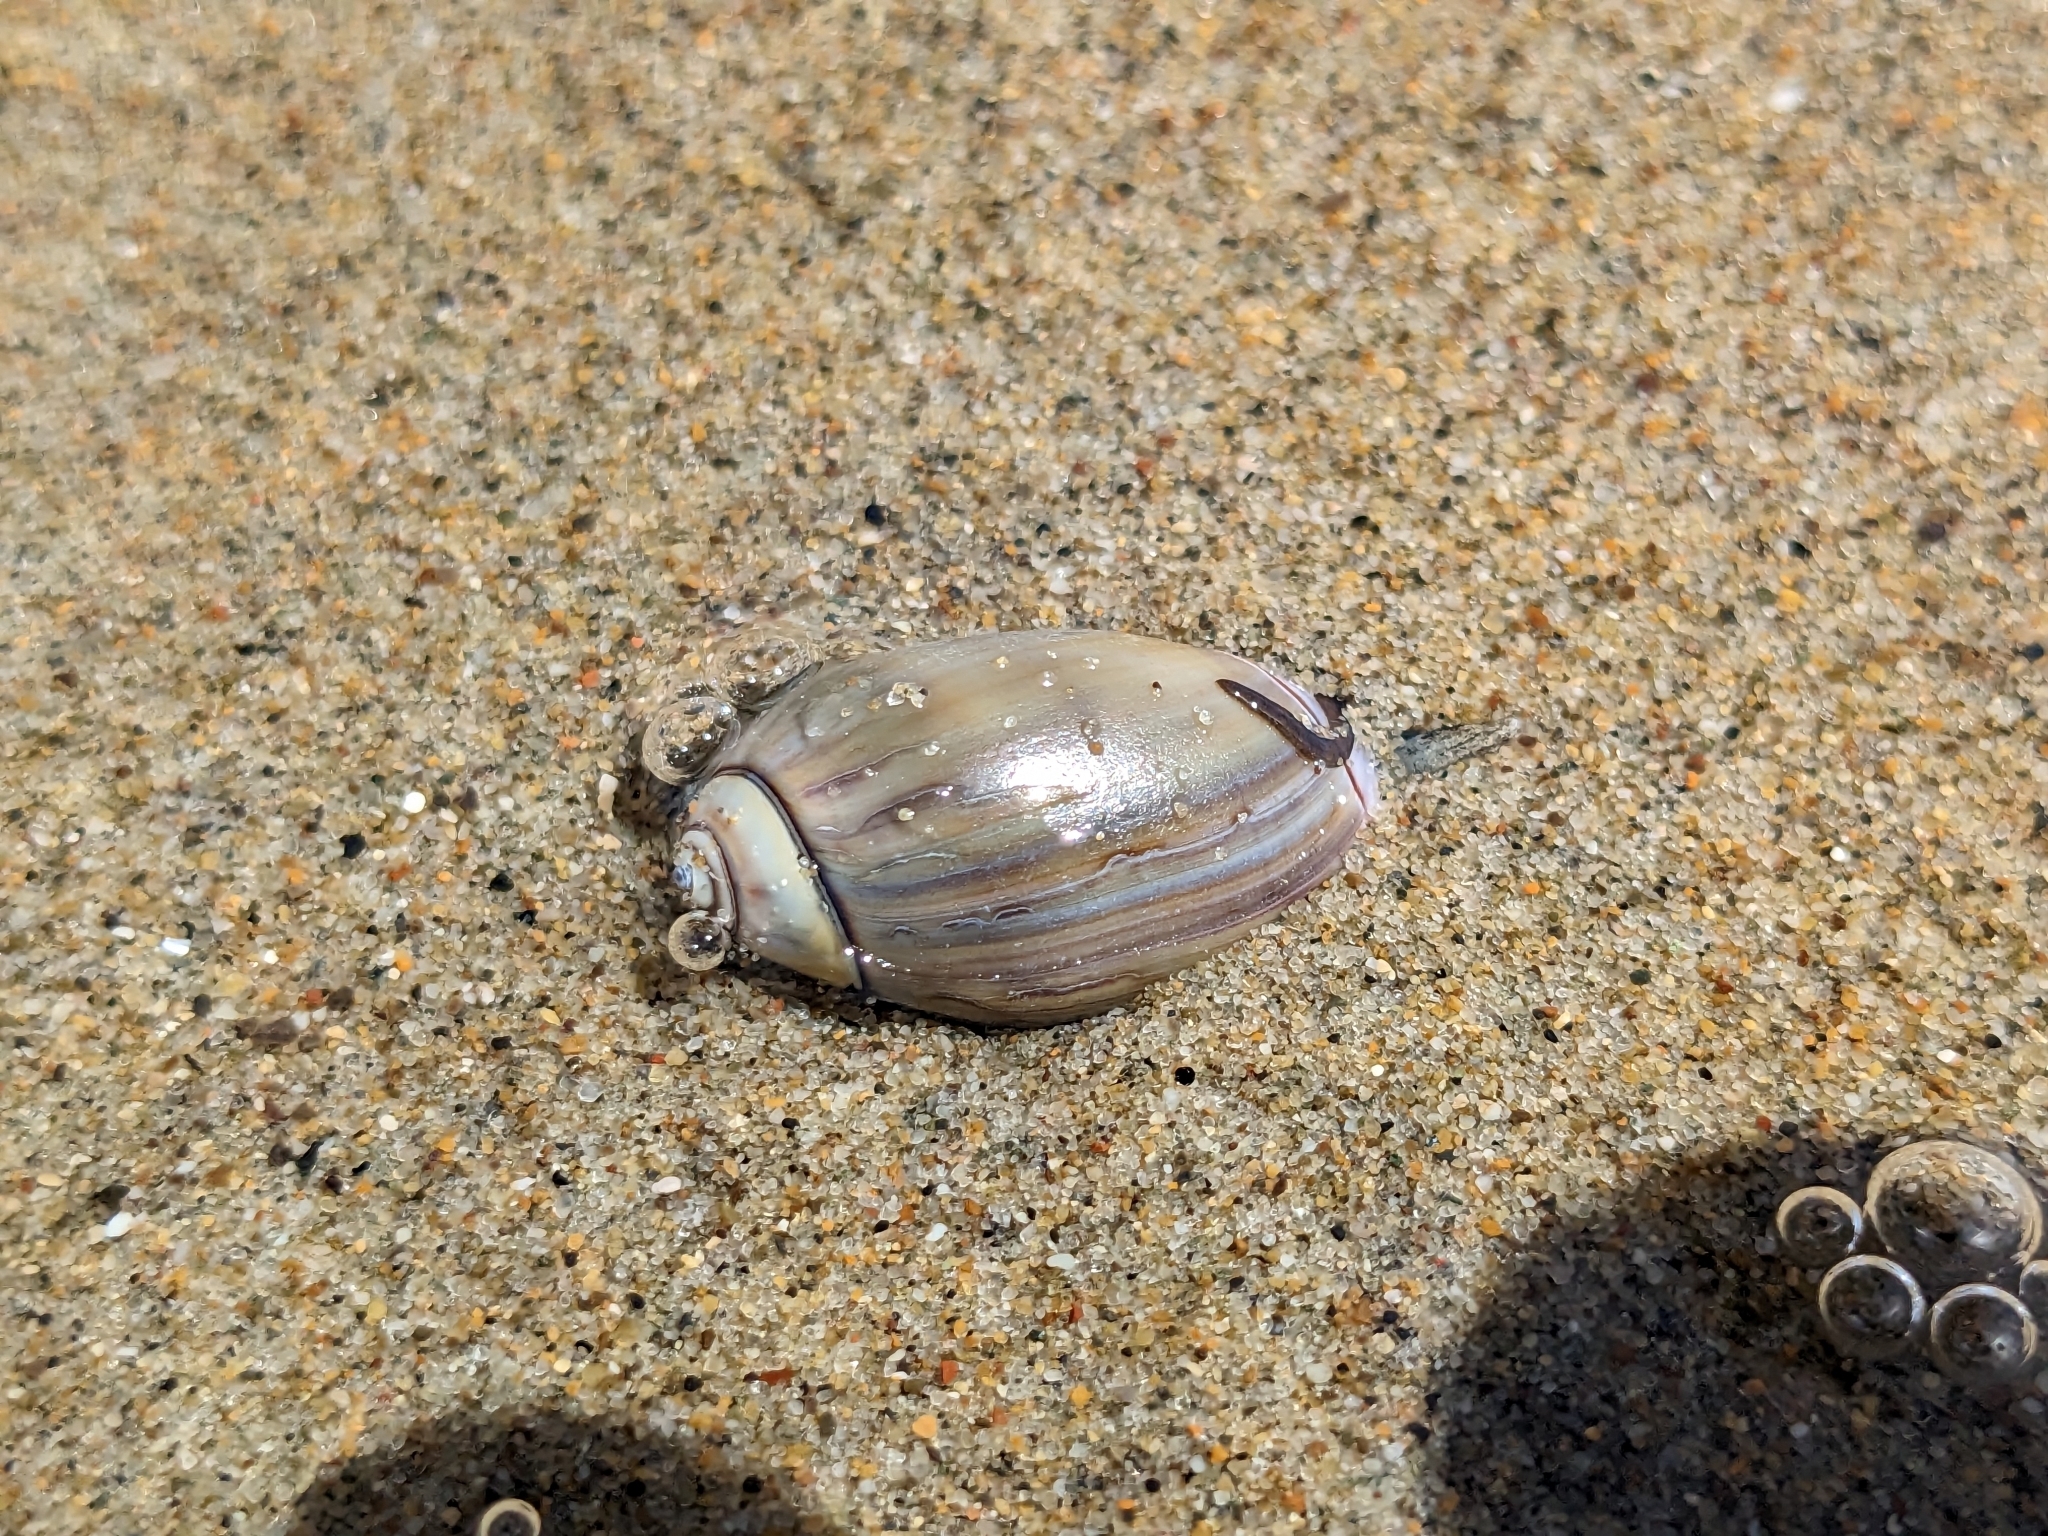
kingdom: Animalia
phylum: Mollusca
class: Gastropoda
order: Neogastropoda
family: Olividae
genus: Callianax
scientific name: Callianax biplicata
